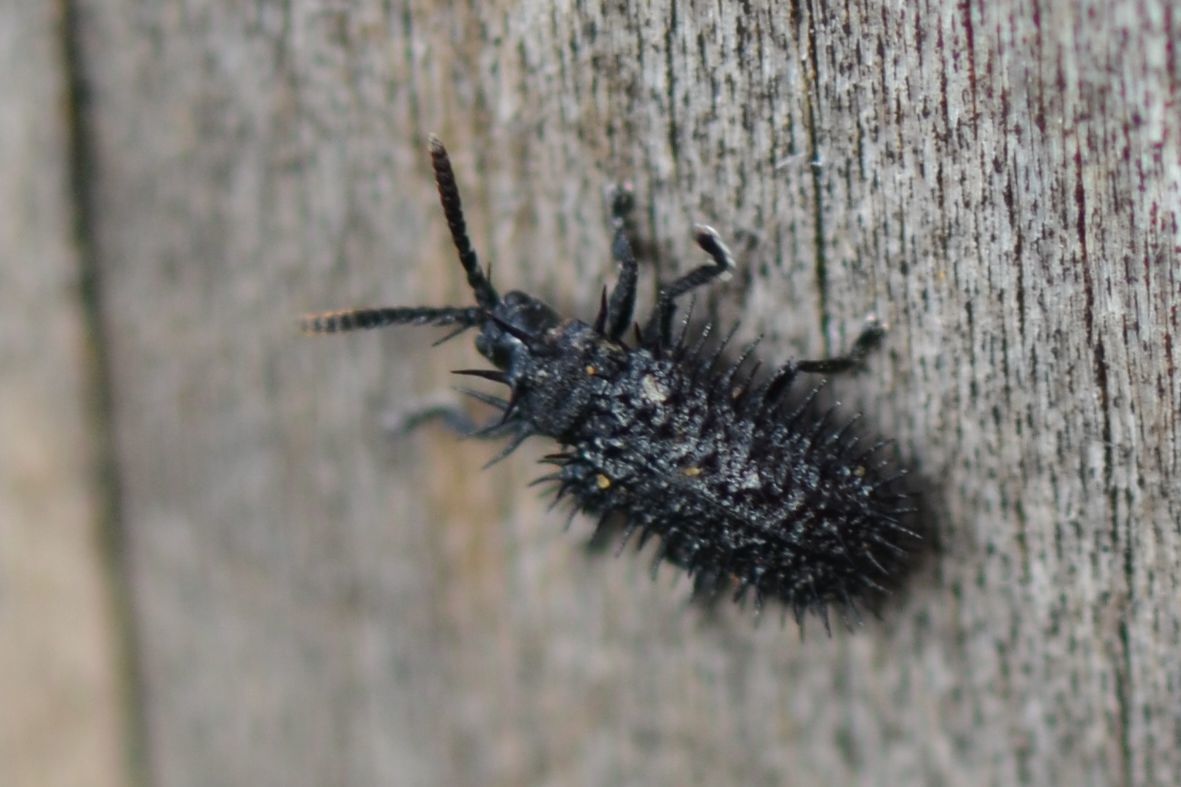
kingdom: Animalia
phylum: Arthropoda
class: Insecta
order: Coleoptera
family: Chrysomelidae
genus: Hispa
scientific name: Hispa atra
